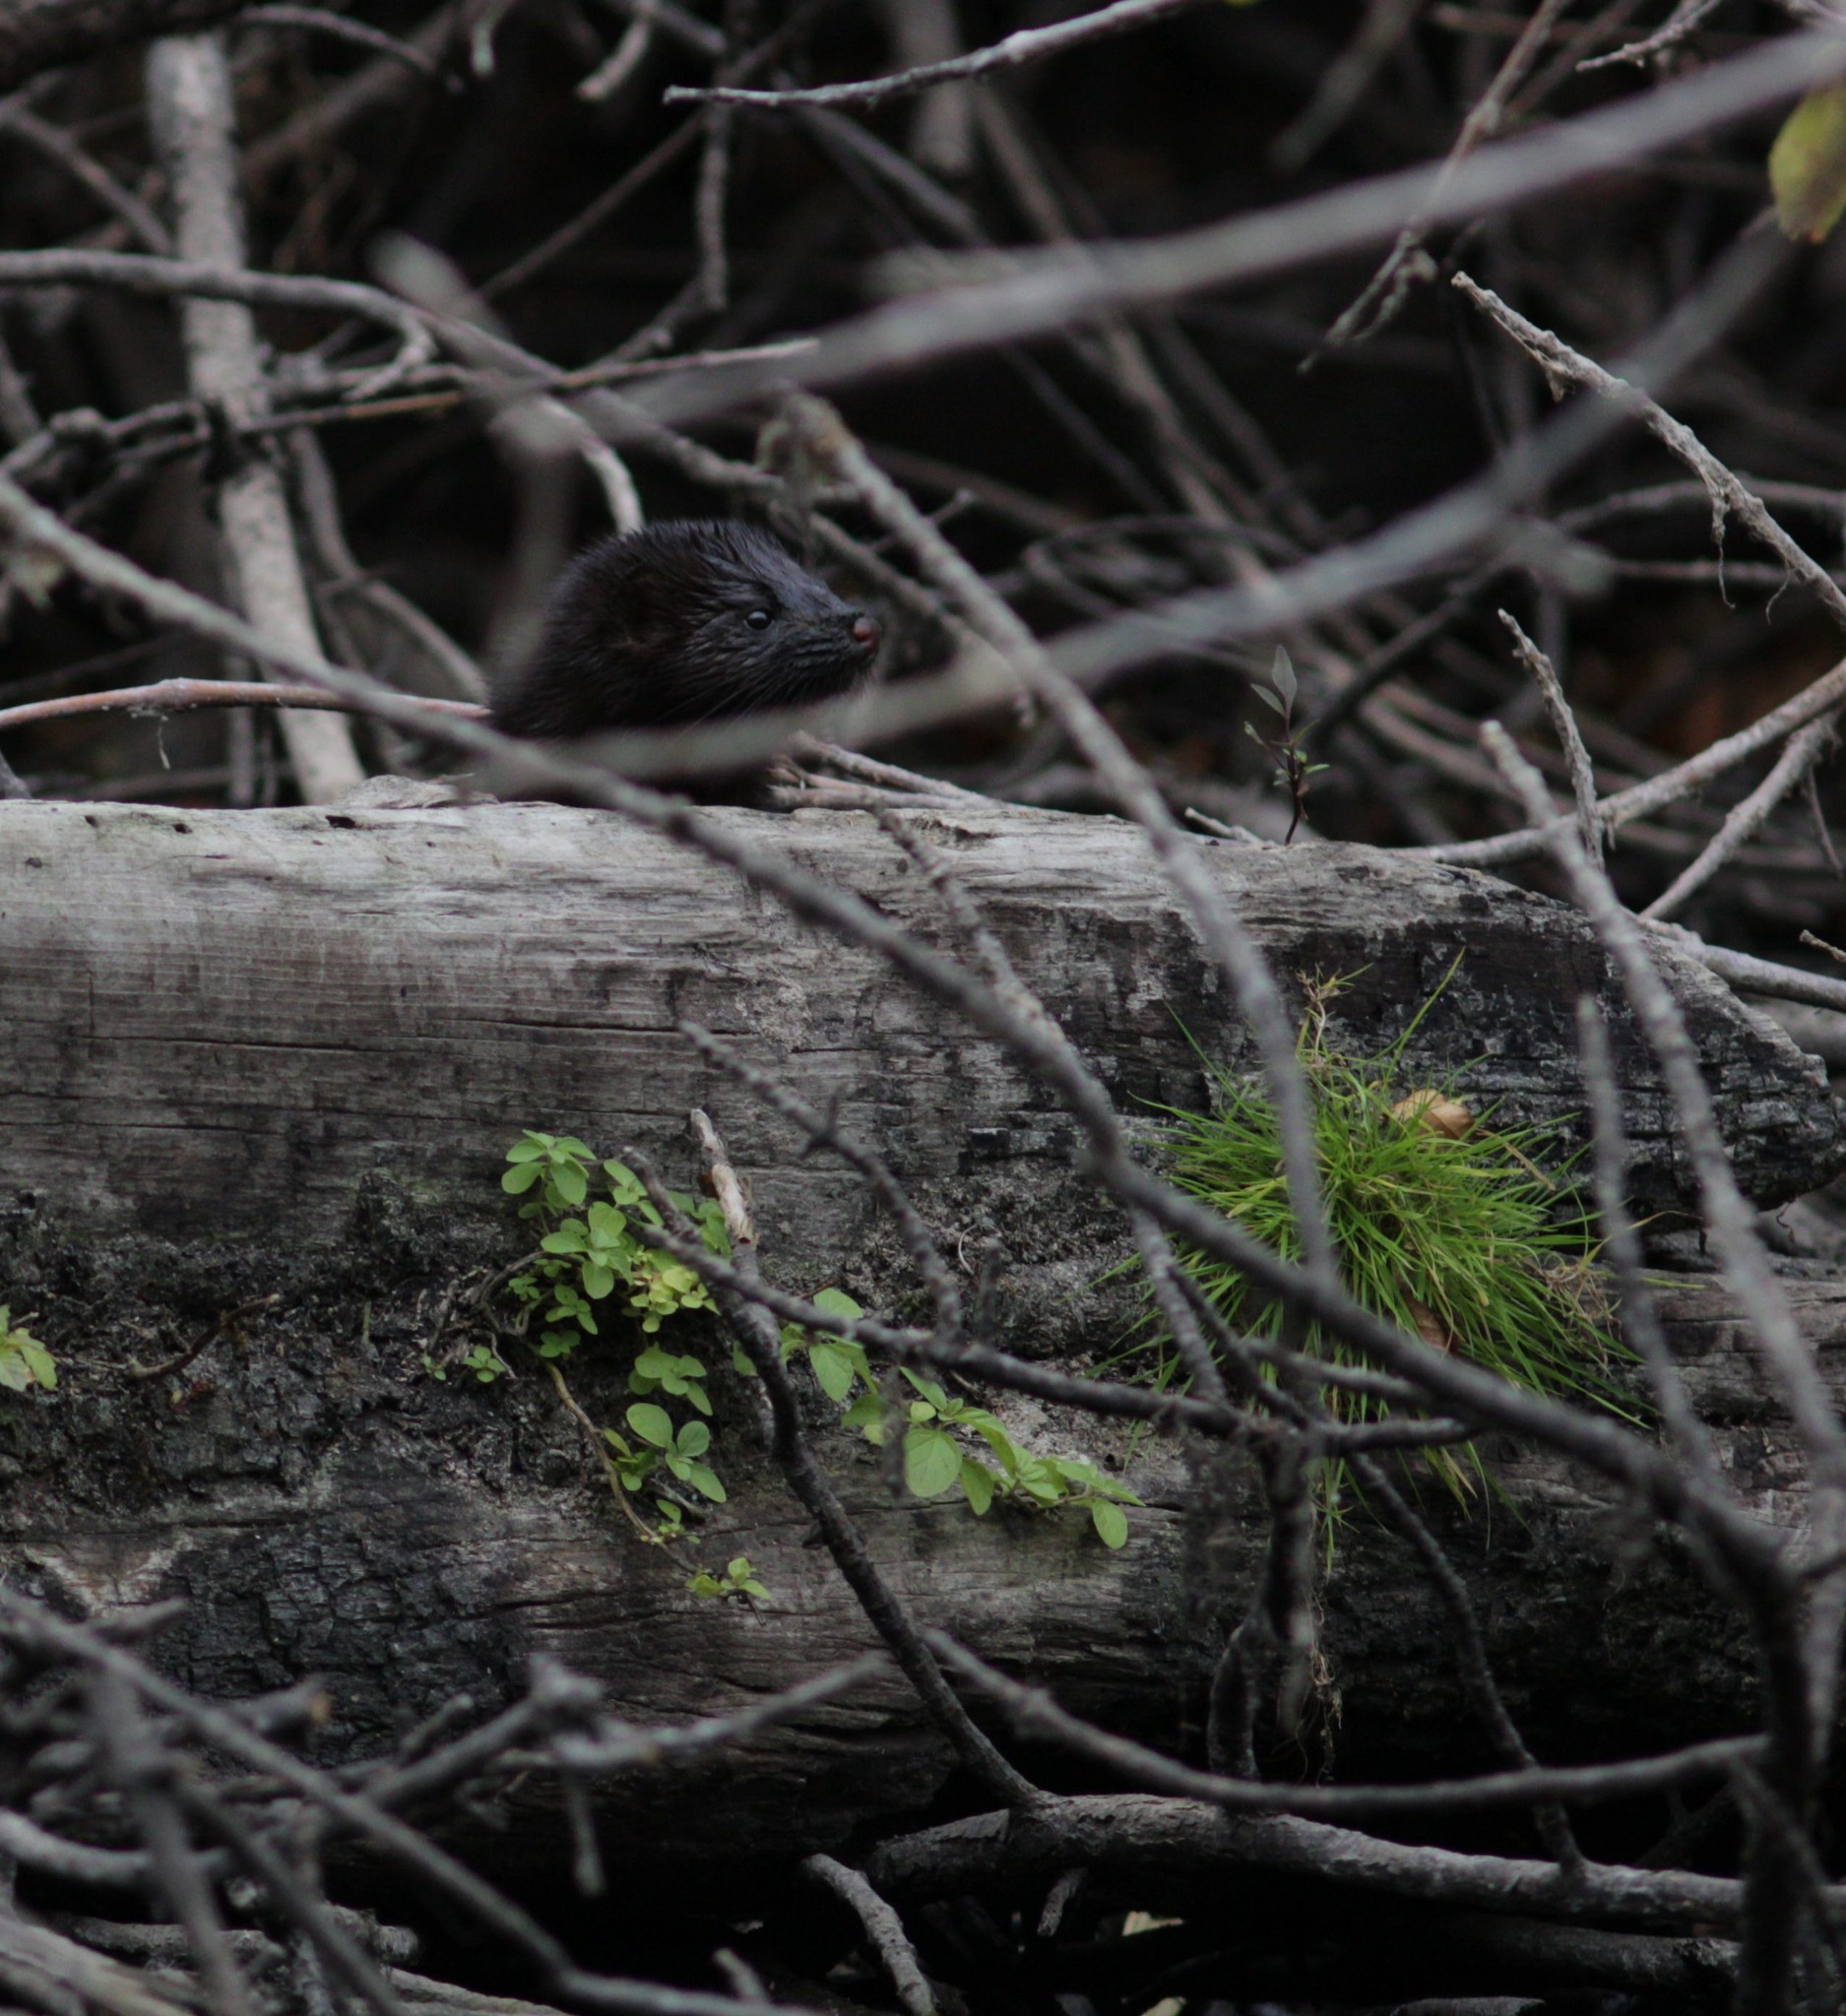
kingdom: Animalia
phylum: Chordata
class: Mammalia
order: Carnivora
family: Mustelidae
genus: Mustela
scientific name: Mustela
